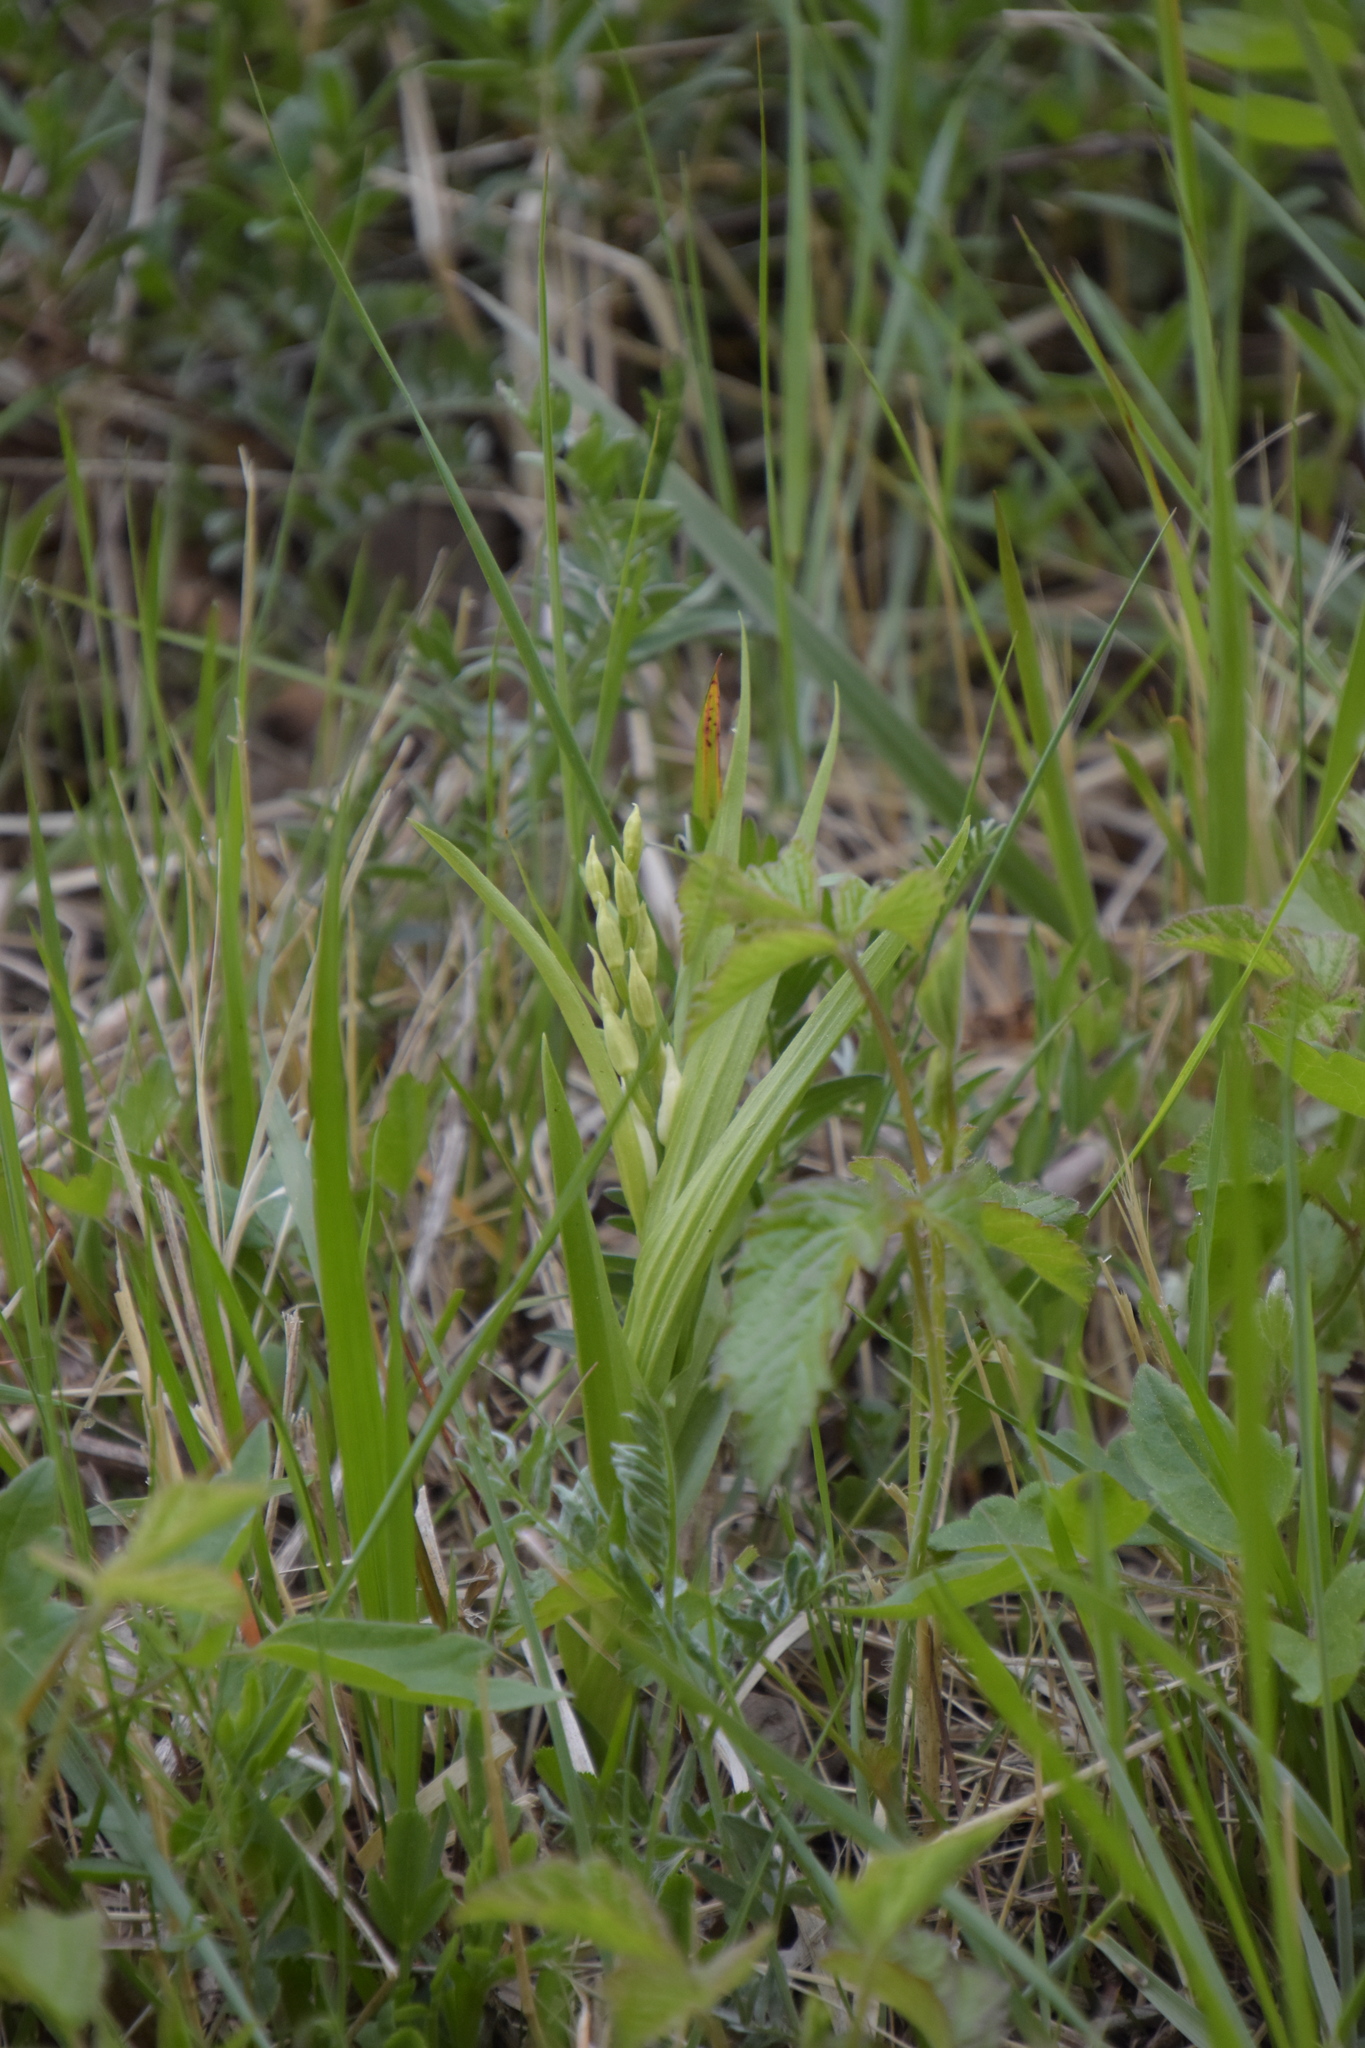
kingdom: Plantae
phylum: Tracheophyta
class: Liliopsida
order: Asparagales
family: Orchidaceae
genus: Cephalanthera
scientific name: Cephalanthera longifolia
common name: Narrow-leaved helleborine
